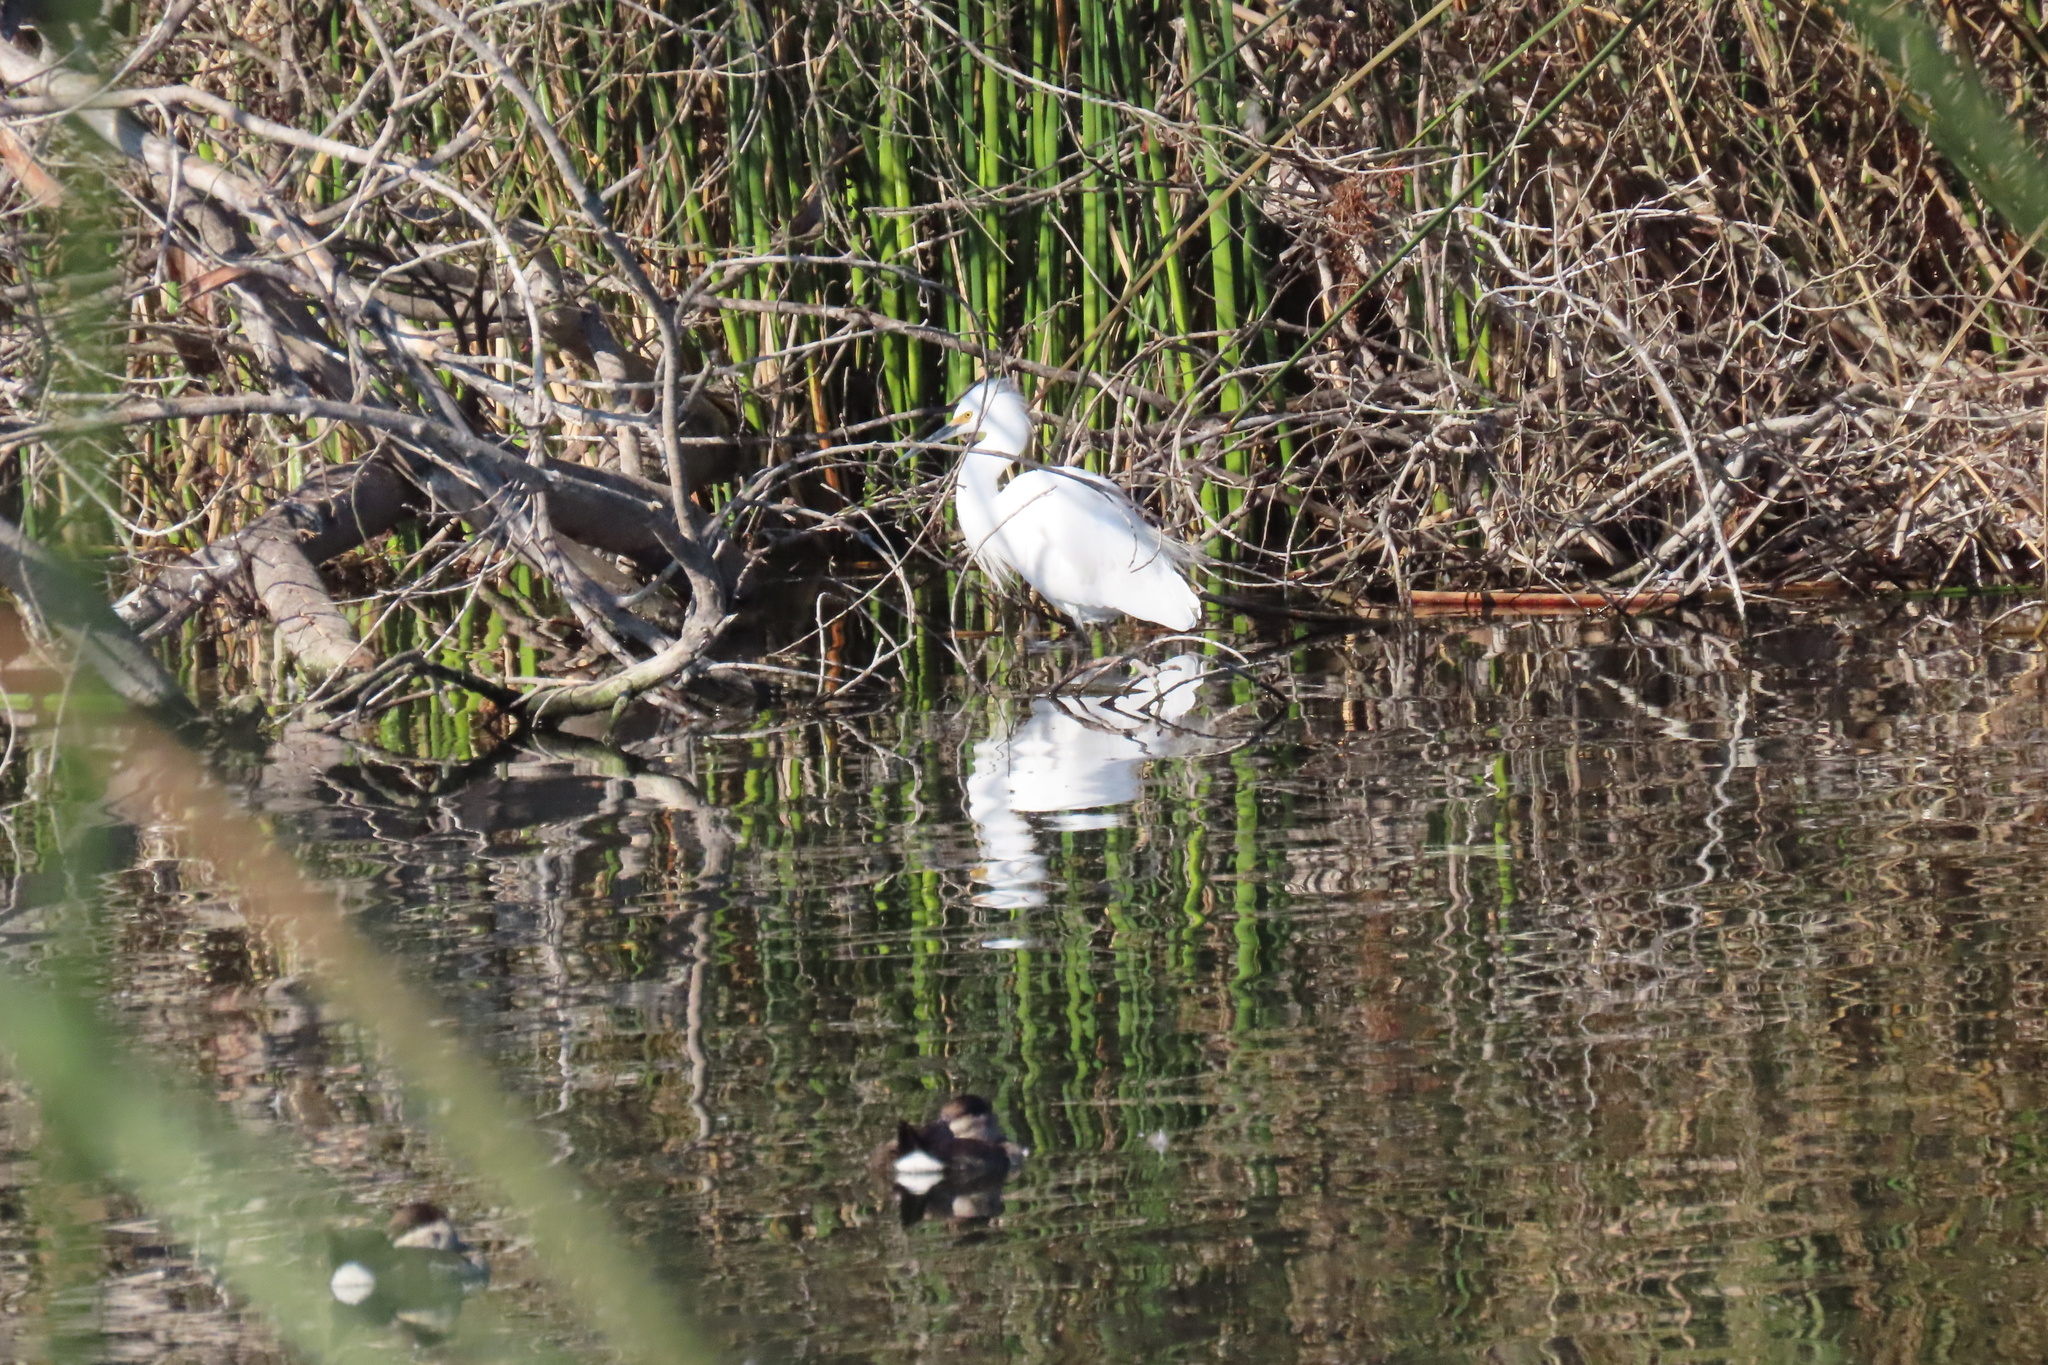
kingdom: Animalia
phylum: Chordata
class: Aves
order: Pelecaniformes
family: Ardeidae
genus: Egretta
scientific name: Egretta thula
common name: Snowy egret
